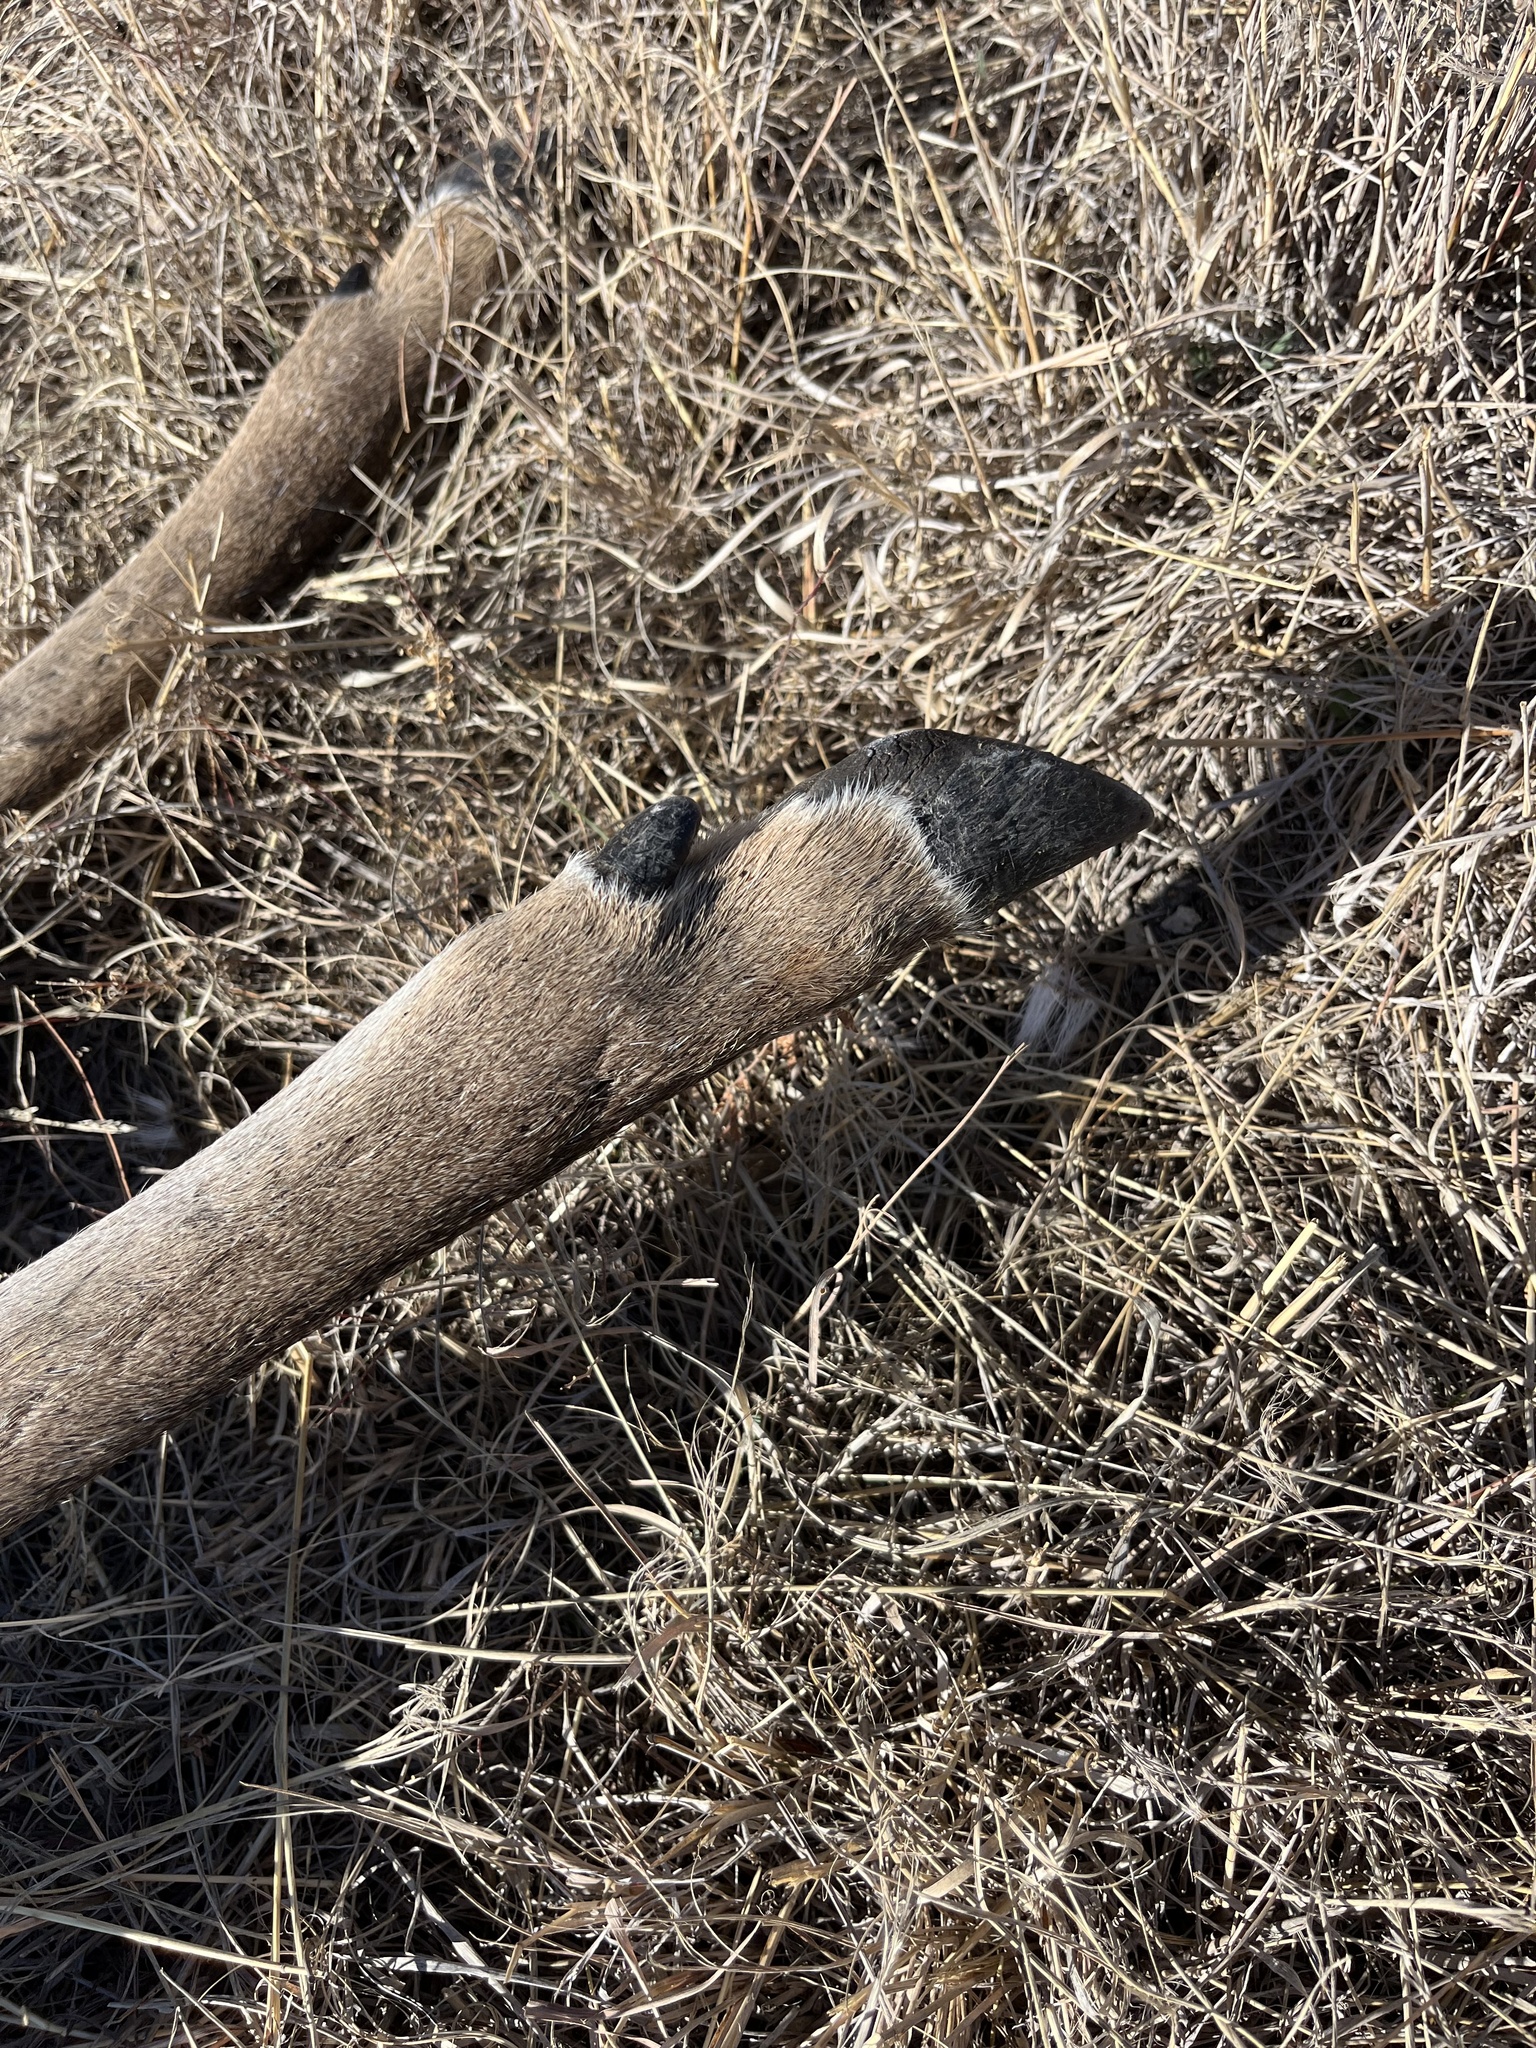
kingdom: Animalia
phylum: Chordata
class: Mammalia
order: Artiodactyla
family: Cervidae
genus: Odocoileus
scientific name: Odocoileus virginianus
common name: White-tailed deer
